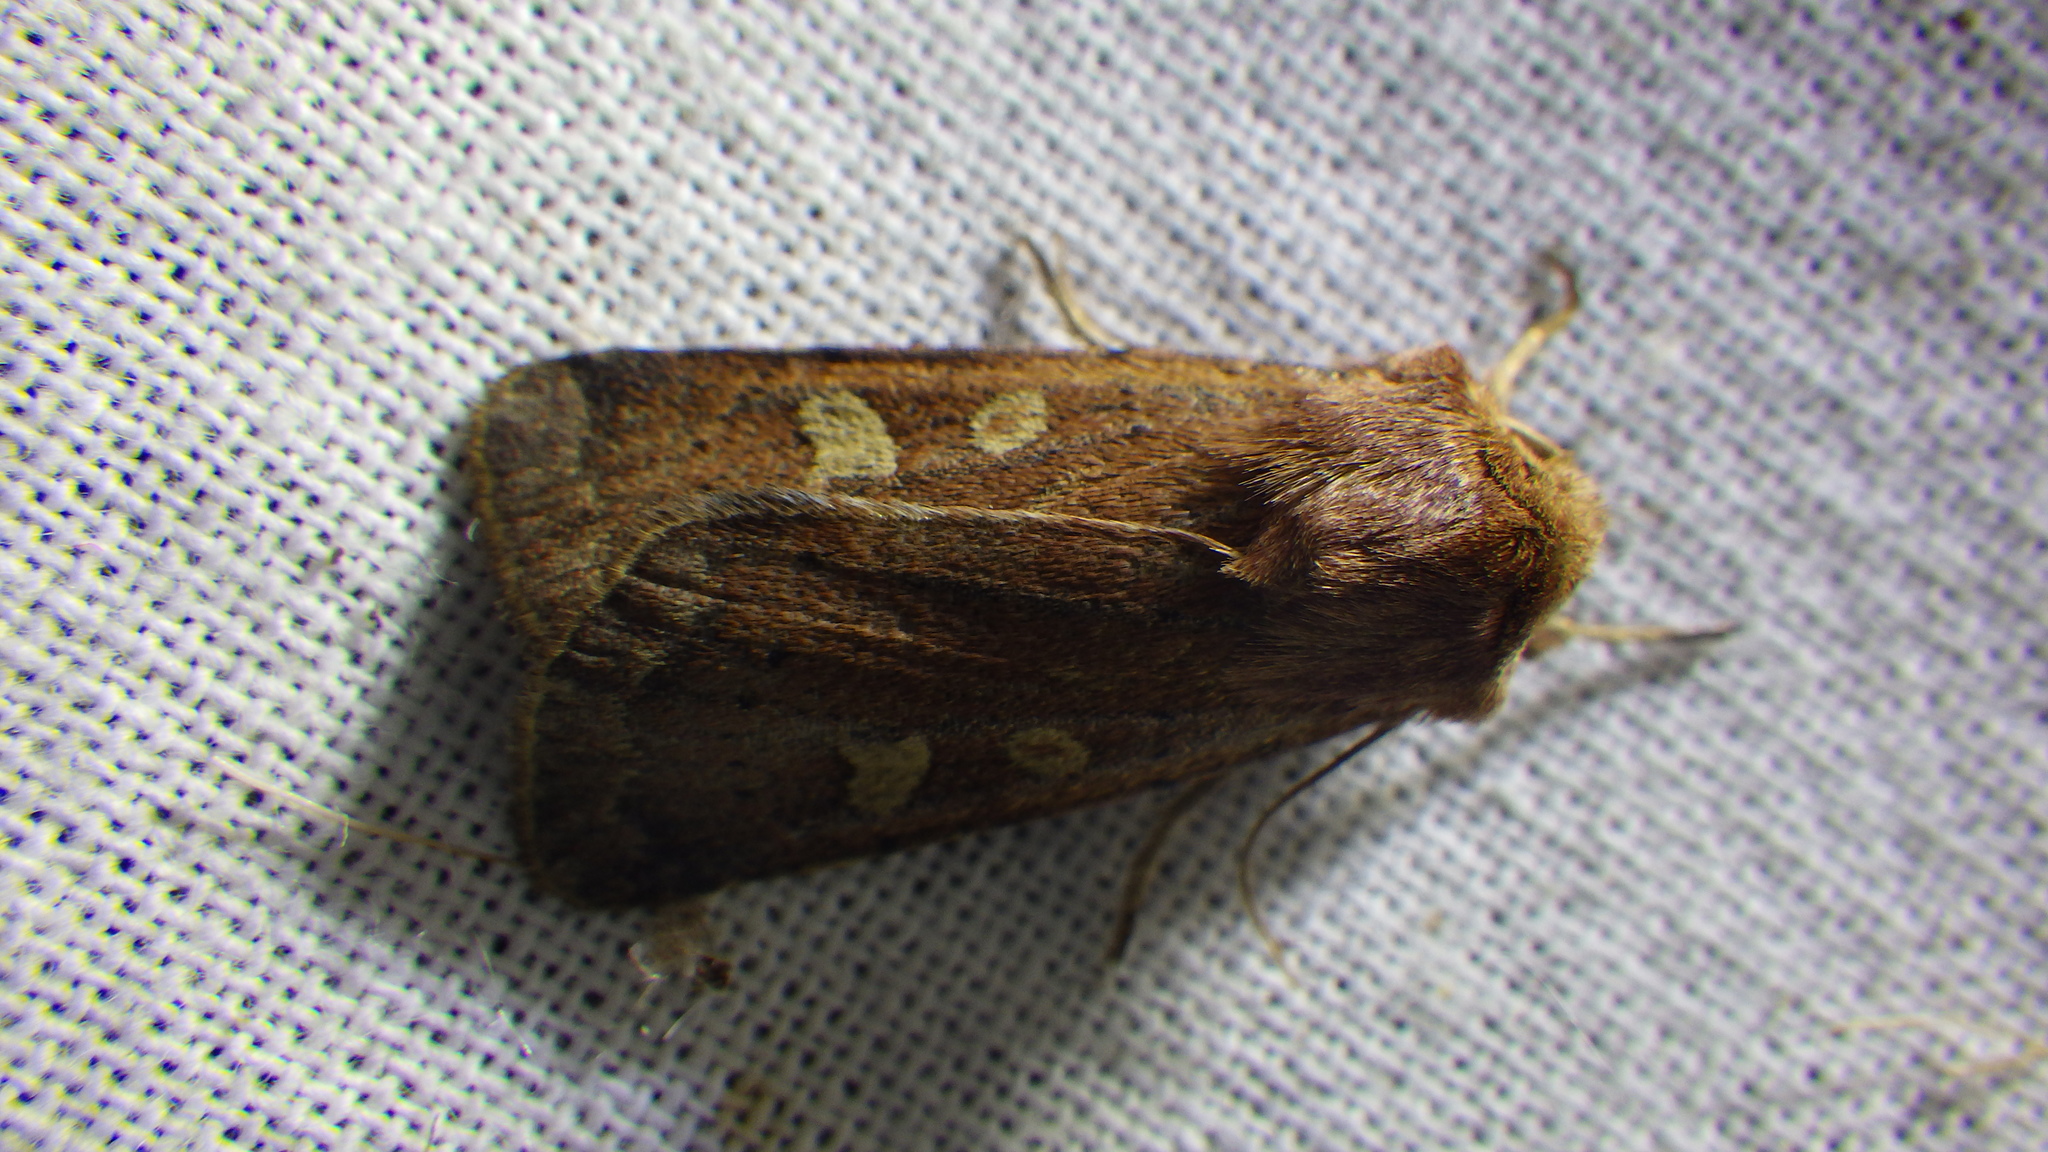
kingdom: Animalia
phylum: Arthropoda
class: Insecta
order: Lepidoptera
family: Noctuidae
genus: Xestia
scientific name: Xestia xanthographa
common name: Square-spot rustic
